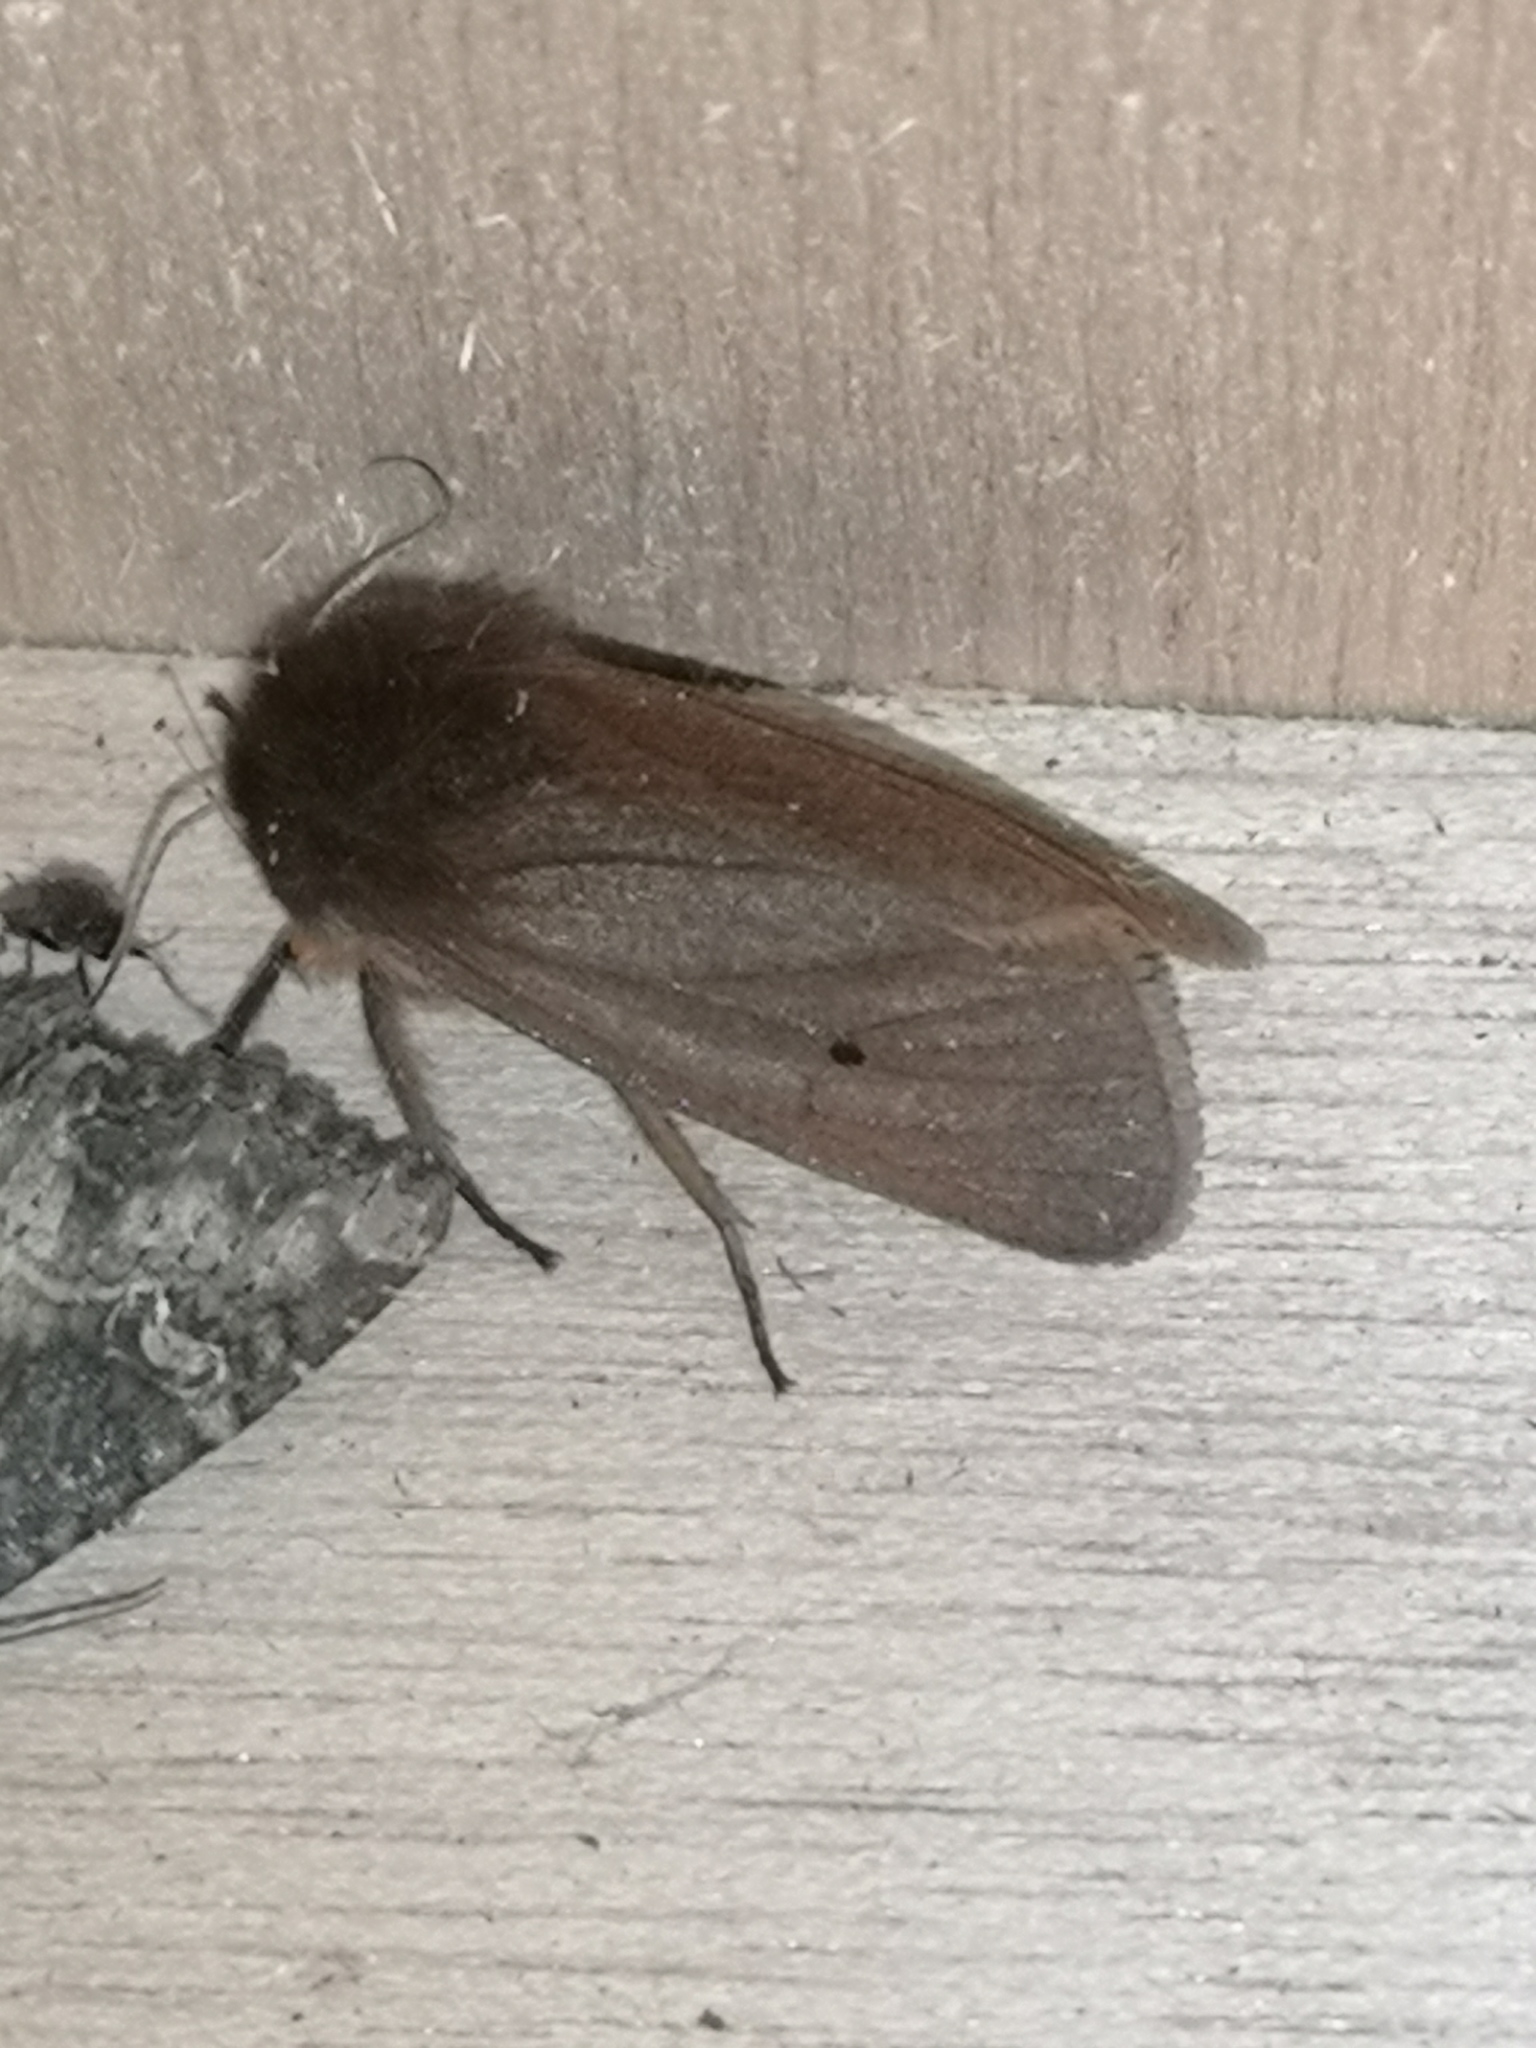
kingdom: Animalia
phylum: Arthropoda
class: Insecta
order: Lepidoptera
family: Erebidae
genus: Phragmatobia
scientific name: Phragmatobia fuliginosa
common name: Ruby tiger
